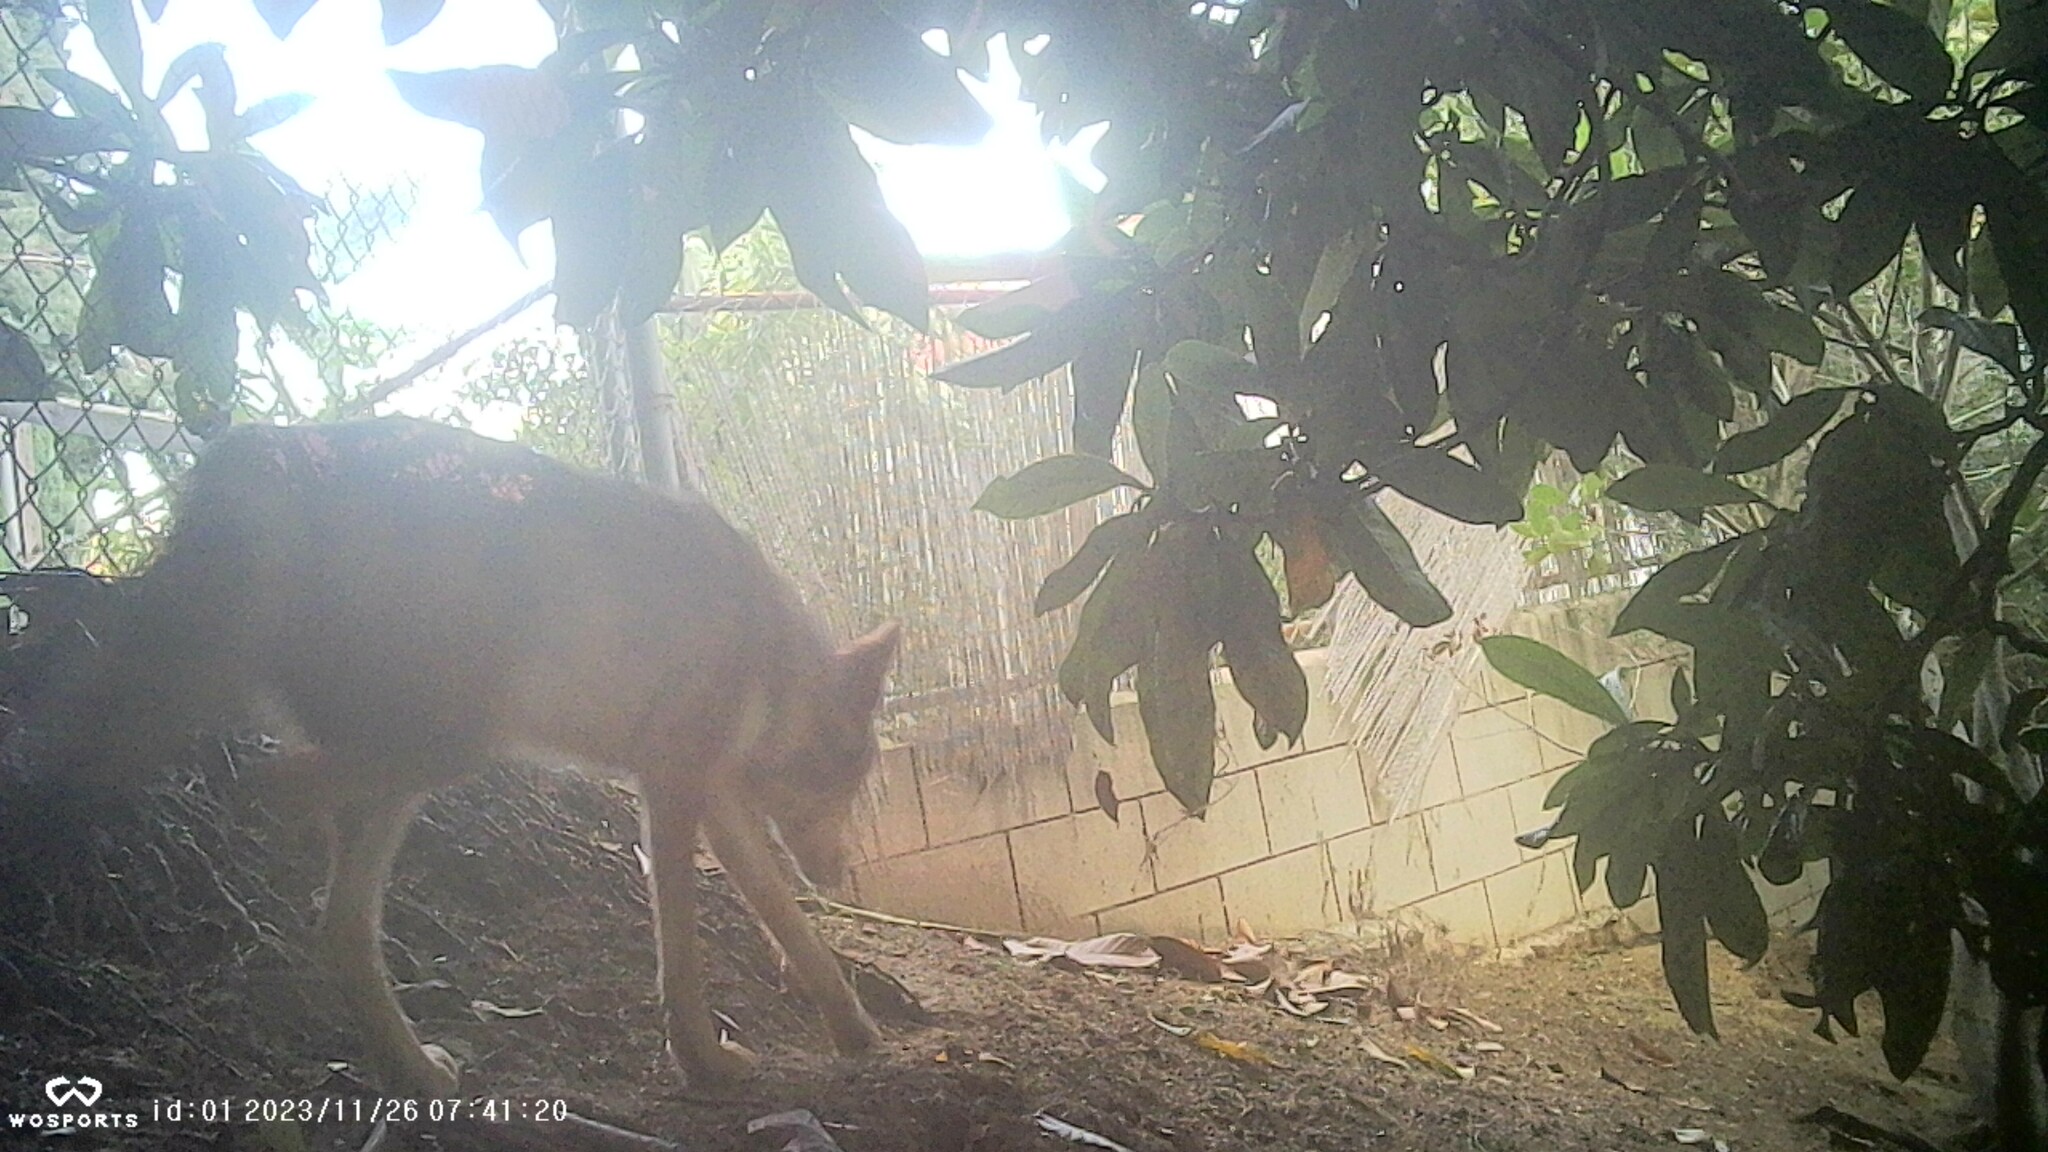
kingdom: Animalia
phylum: Chordata
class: Mammalia
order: Carnivora
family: Canidae
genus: Canis
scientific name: Canis latrans
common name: Coyote
